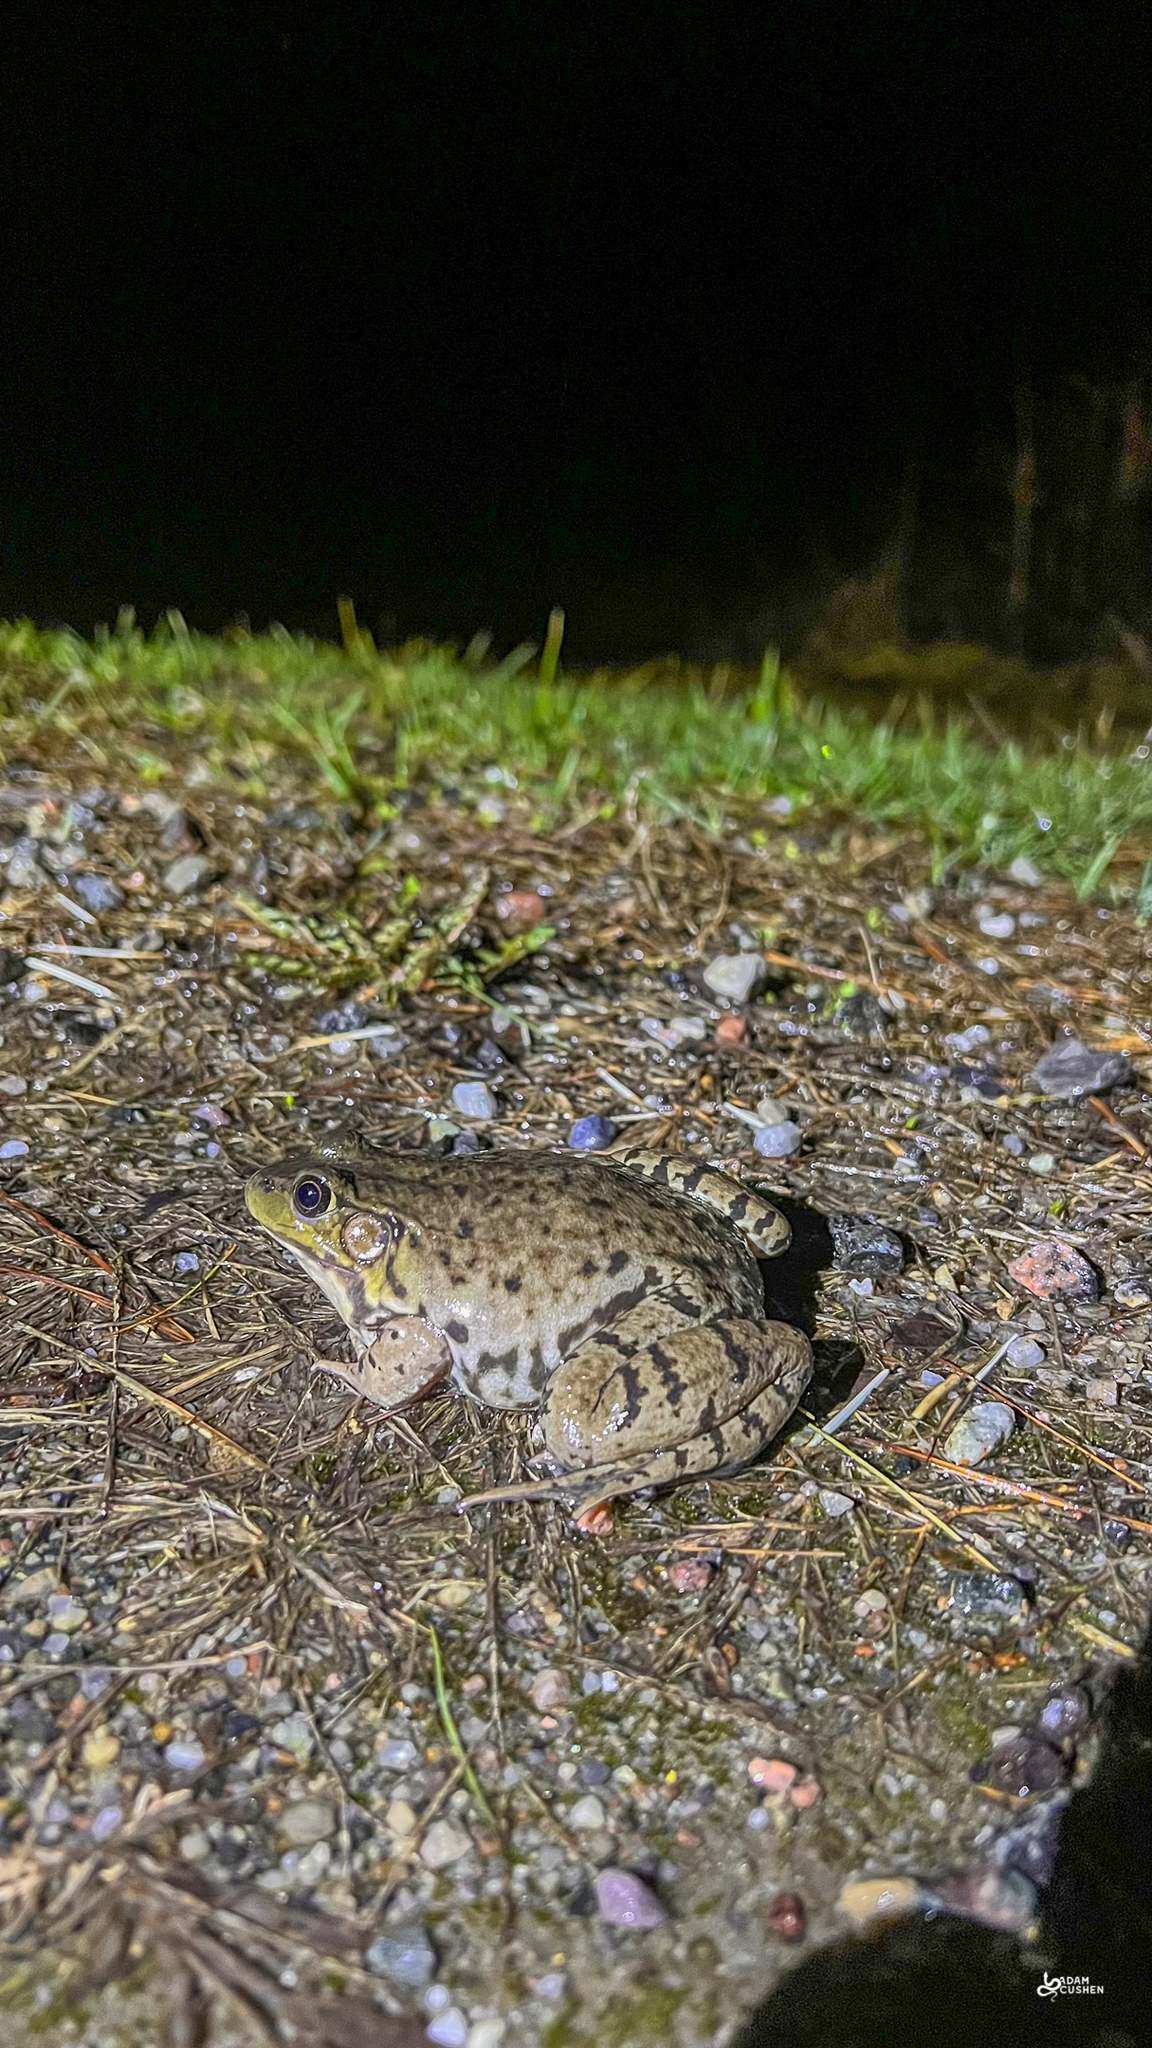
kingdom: Animalia
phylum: Chordata
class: Amphibia
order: Anura
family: Ranidae
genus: Lithobates
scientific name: Lithobates catesbeianus
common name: American bullfrog
